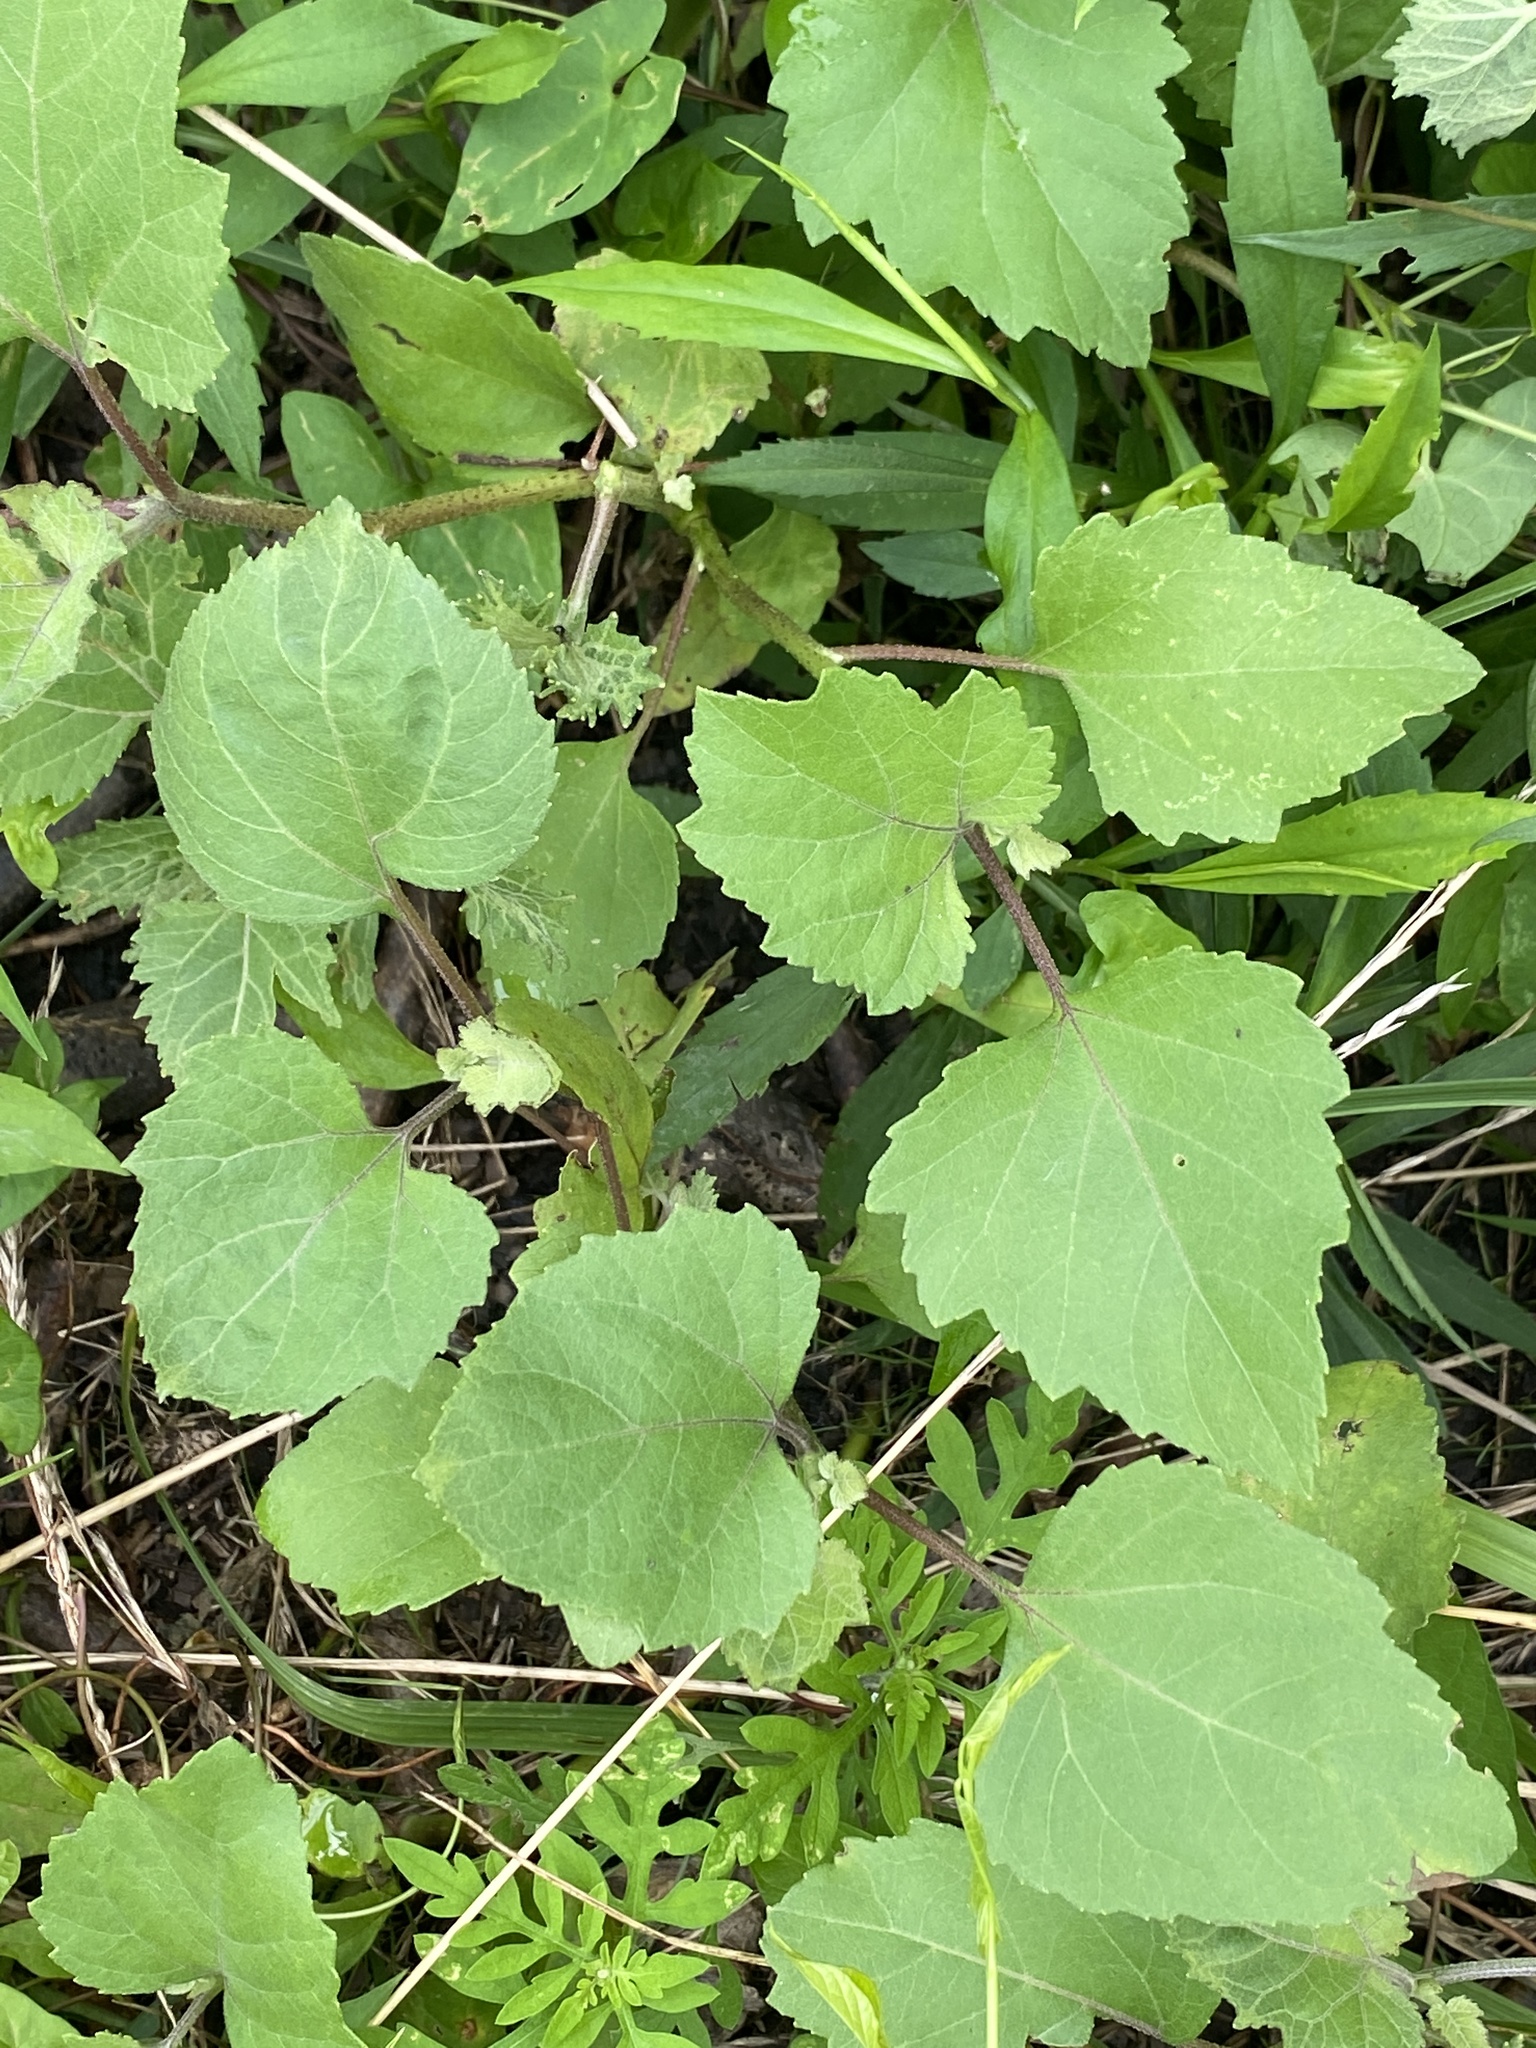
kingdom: Plantae
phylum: Tracheophyta
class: Magnoliopsida
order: Asterales
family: Asteraceae
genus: Xanthium
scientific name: Xanthium strumarium
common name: Rough cocklebur
